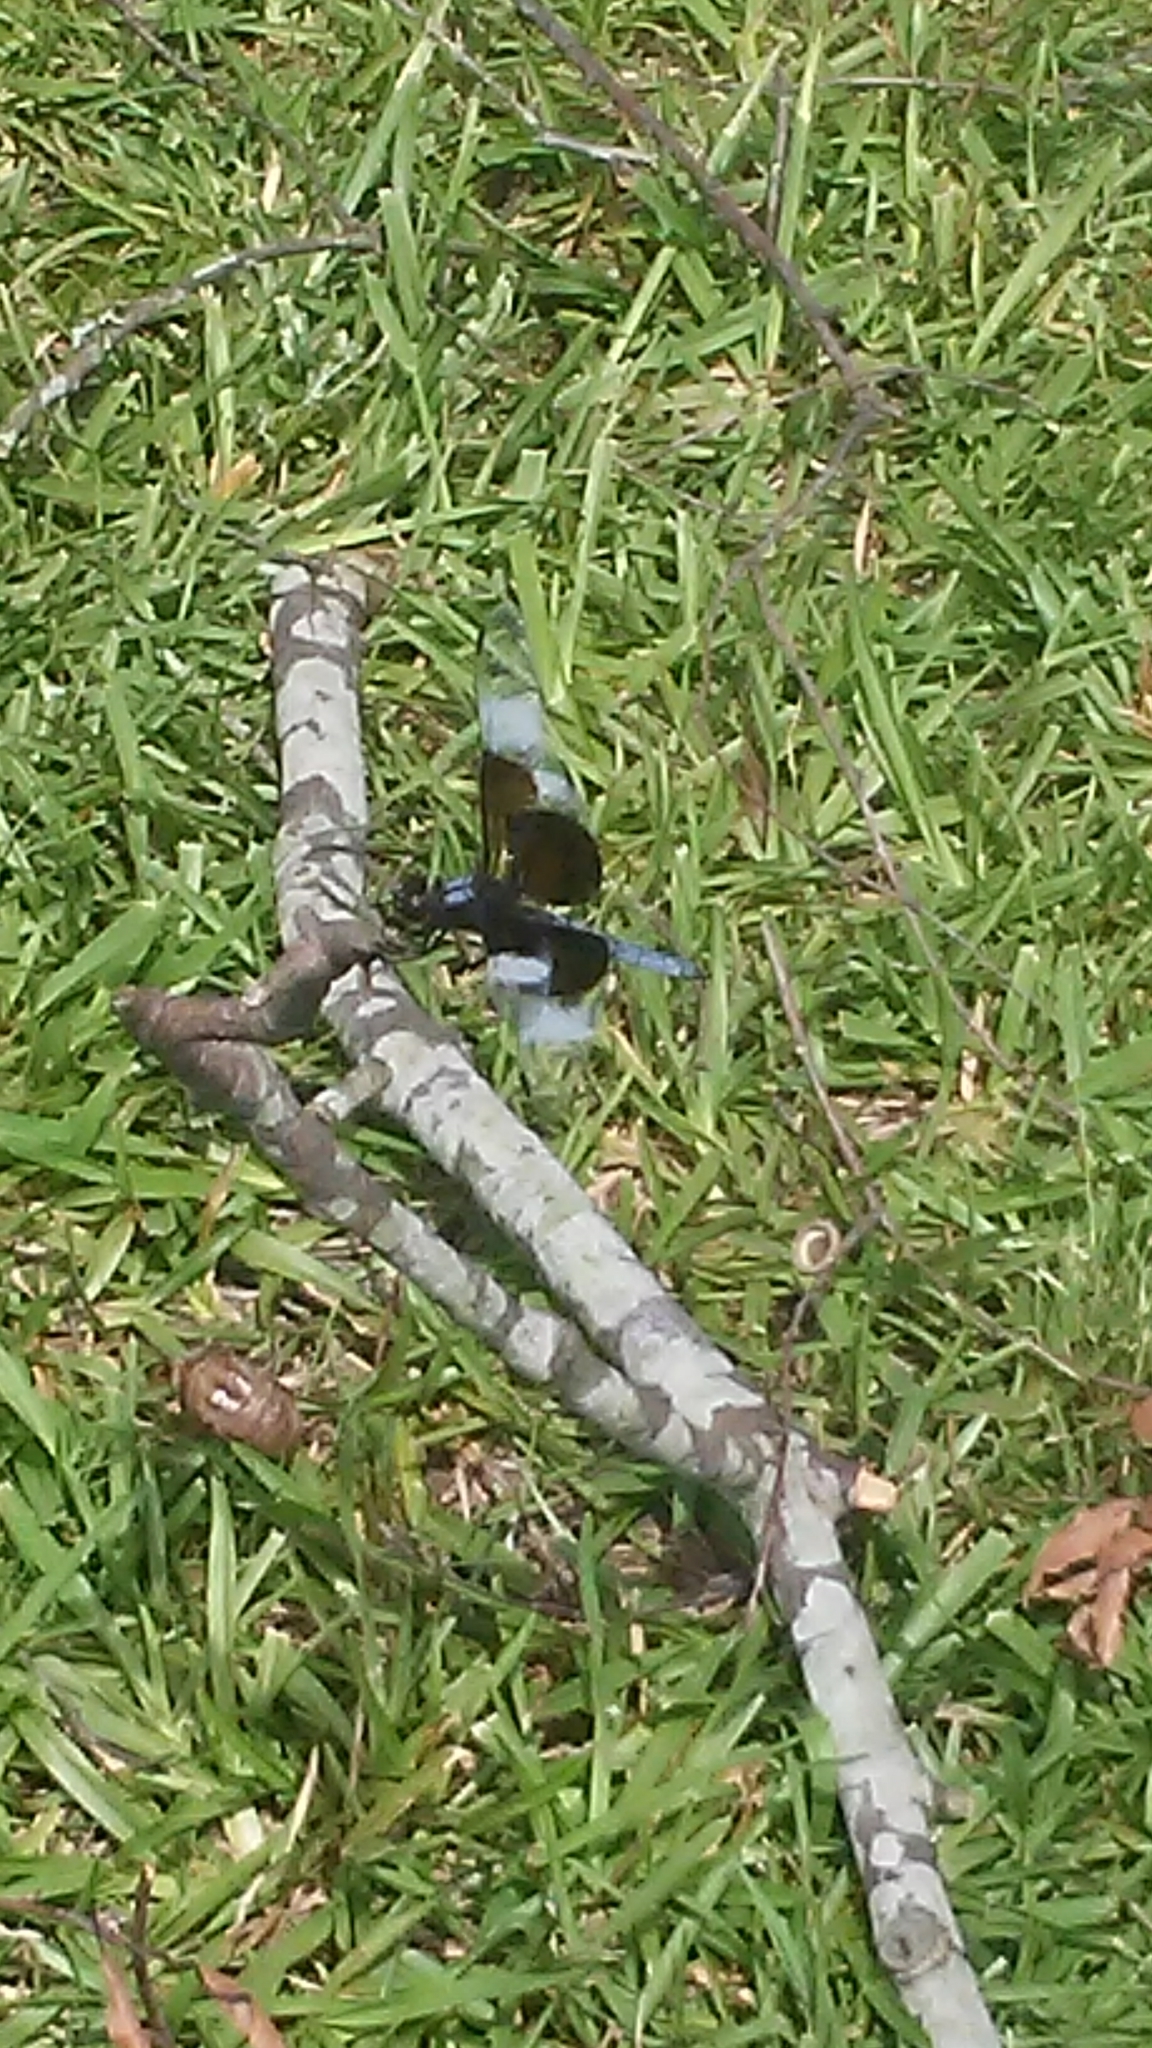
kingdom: Animalia
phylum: Arthropoda
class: Insecta
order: Odonata
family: Libellulidae
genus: Libellula
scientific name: Libellula luctuosa
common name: Widow skimmer
